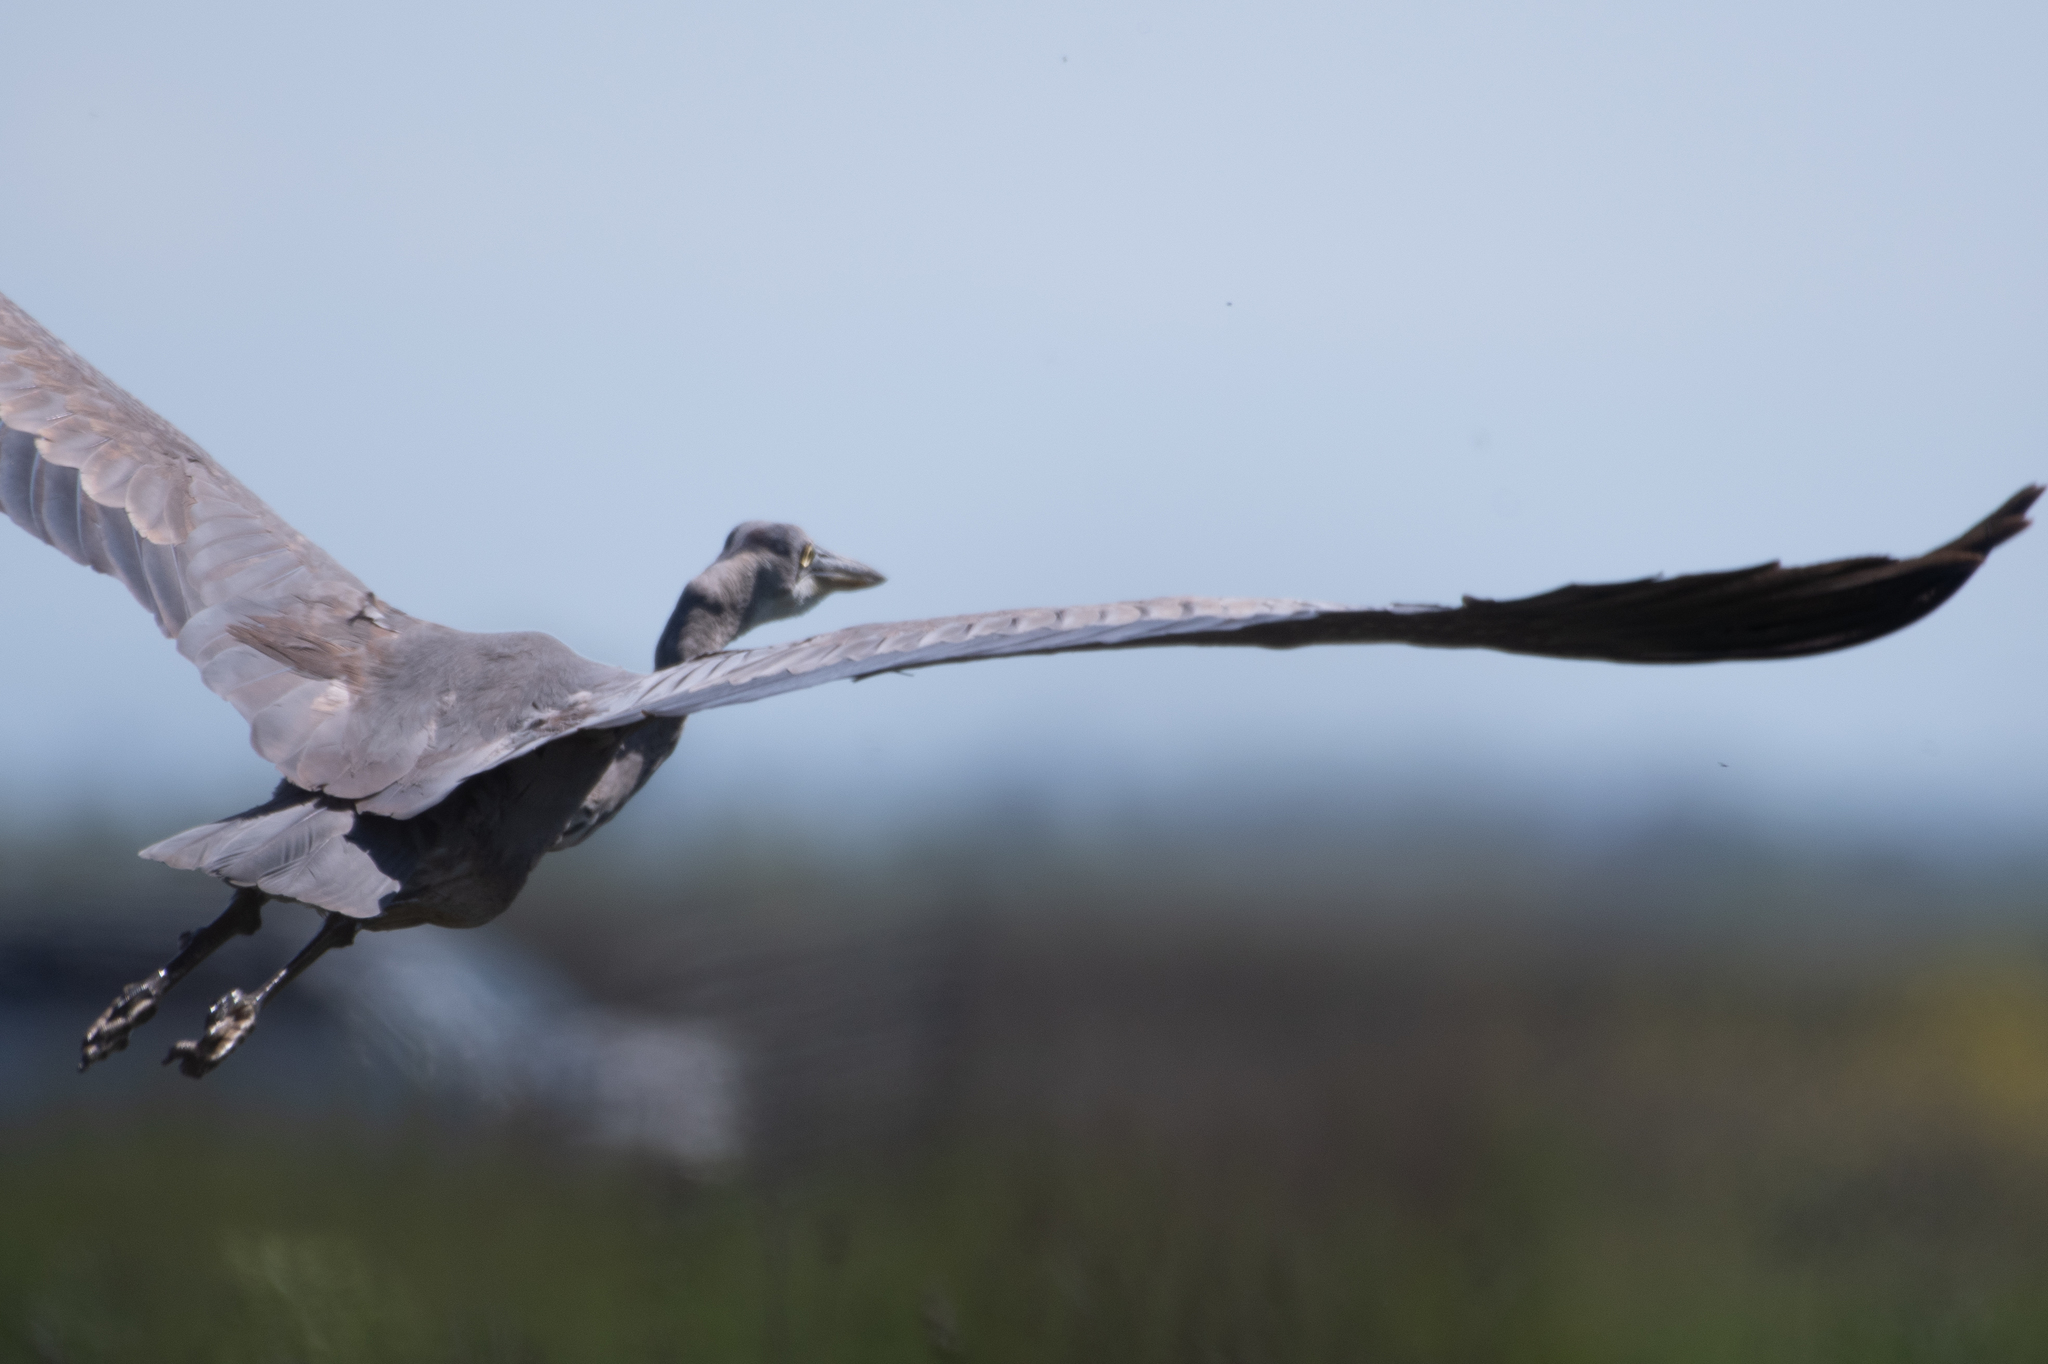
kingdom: Animalia
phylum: Chordata
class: Aves
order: Pelecaniformes
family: Ardeidae
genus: Ardea
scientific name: Ardea herodias
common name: Great blue heron
